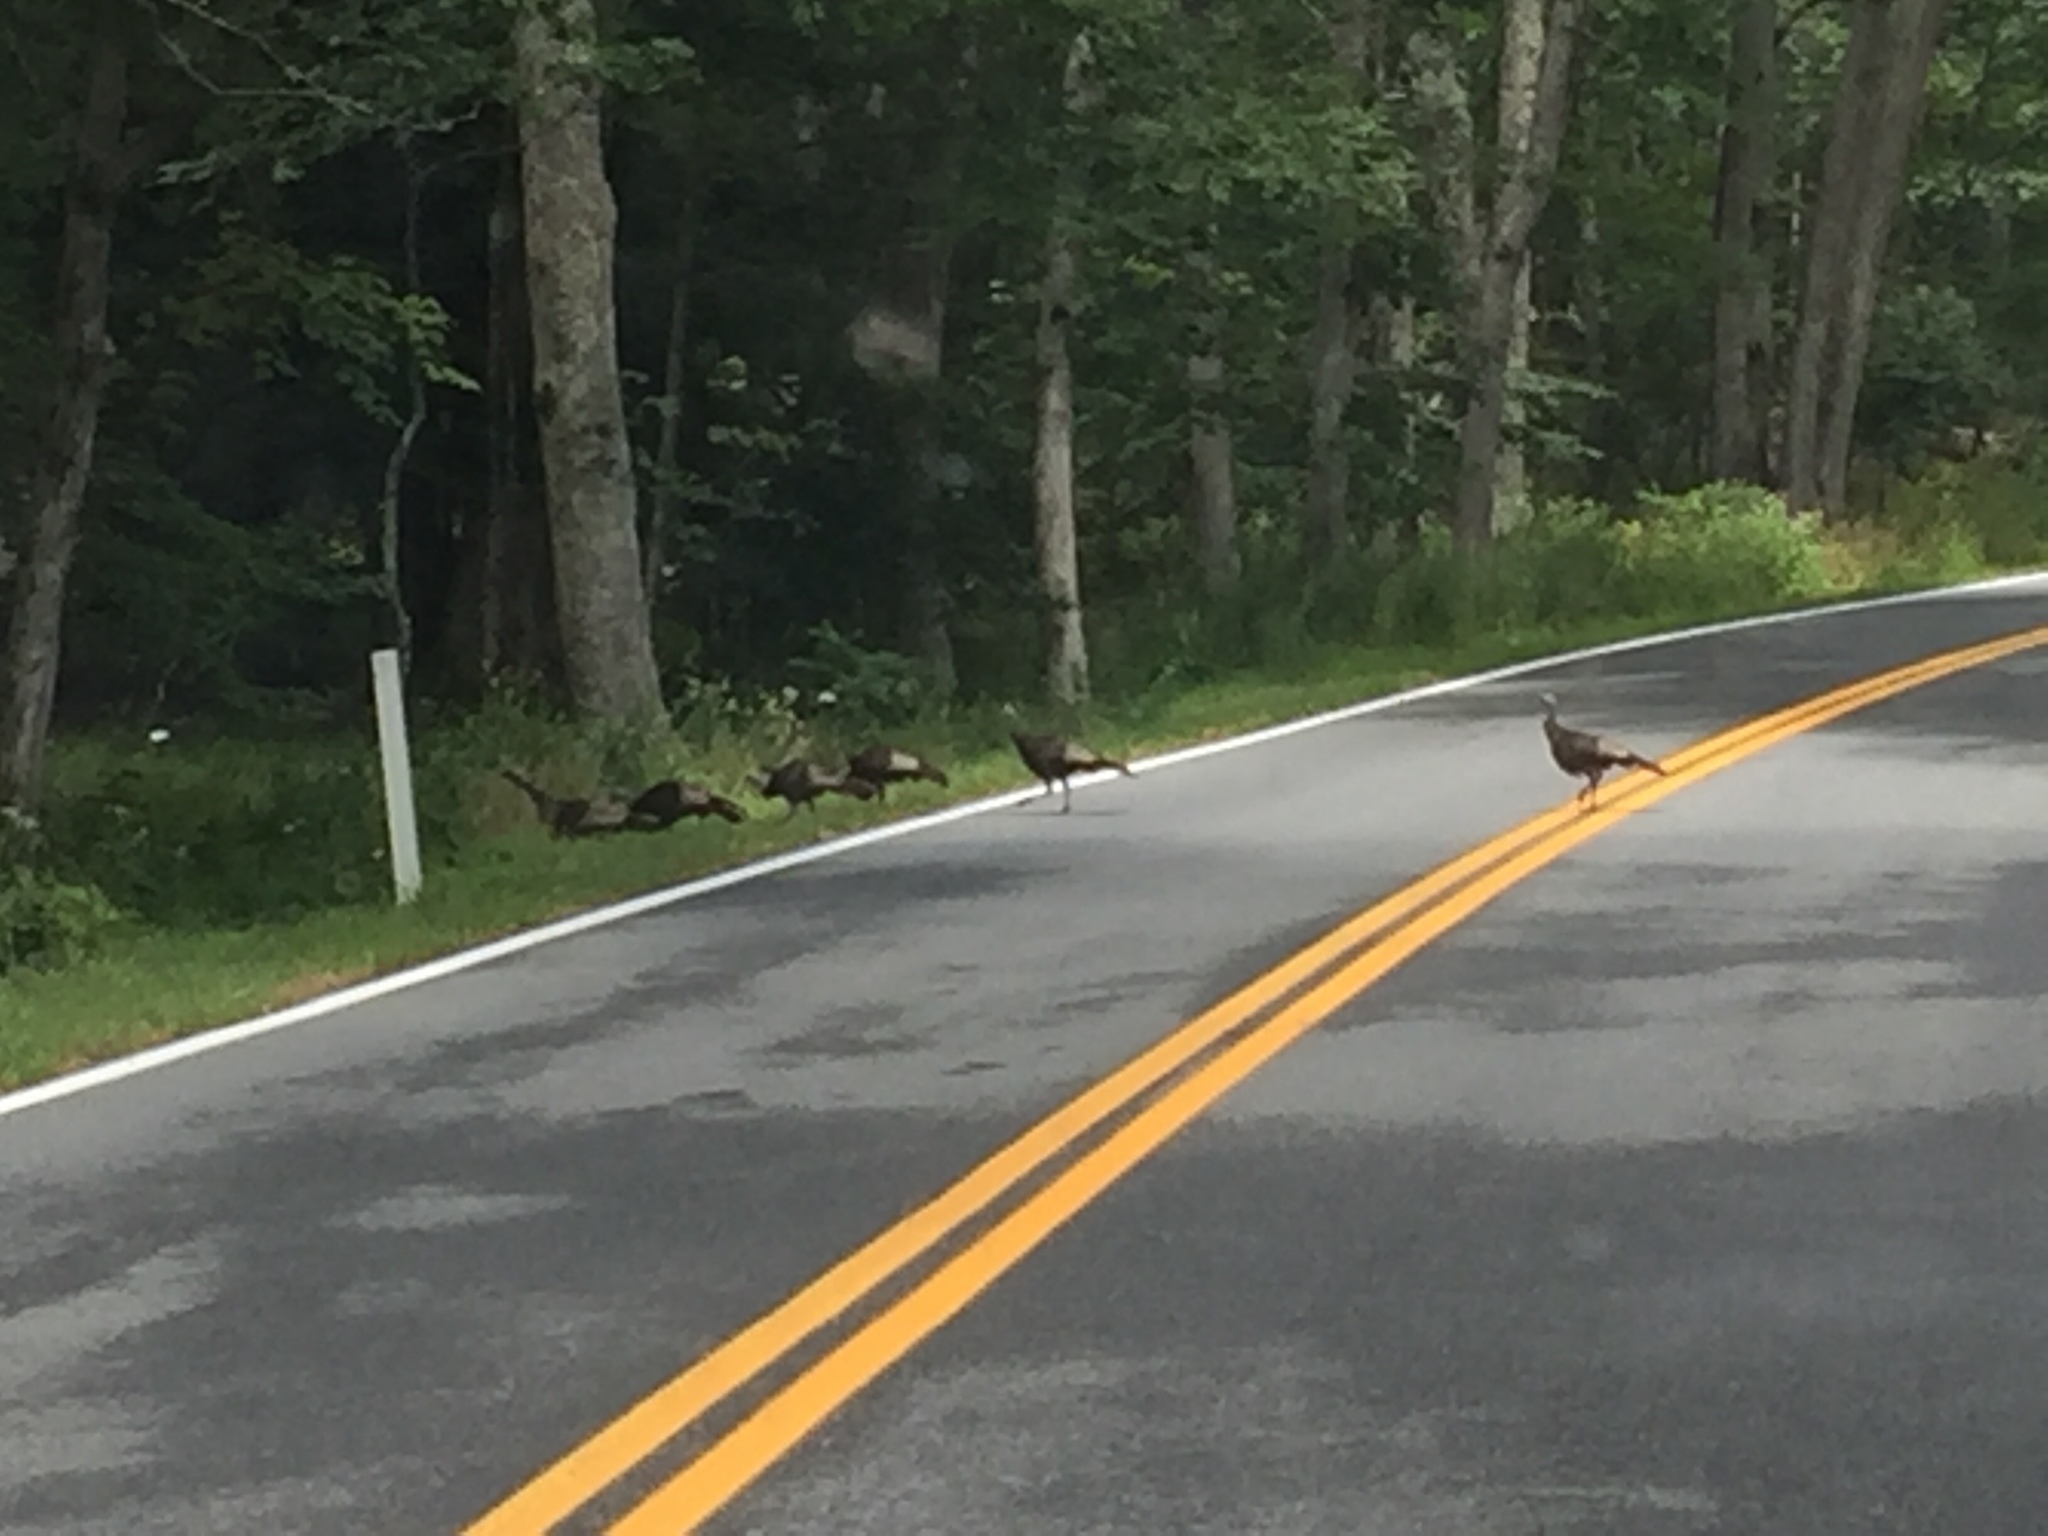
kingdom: Animalia
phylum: Chordata
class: Aves
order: Galliformes
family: Phasianidae
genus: Meleagris
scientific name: Meleagris gallopavo
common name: Wild turkey
